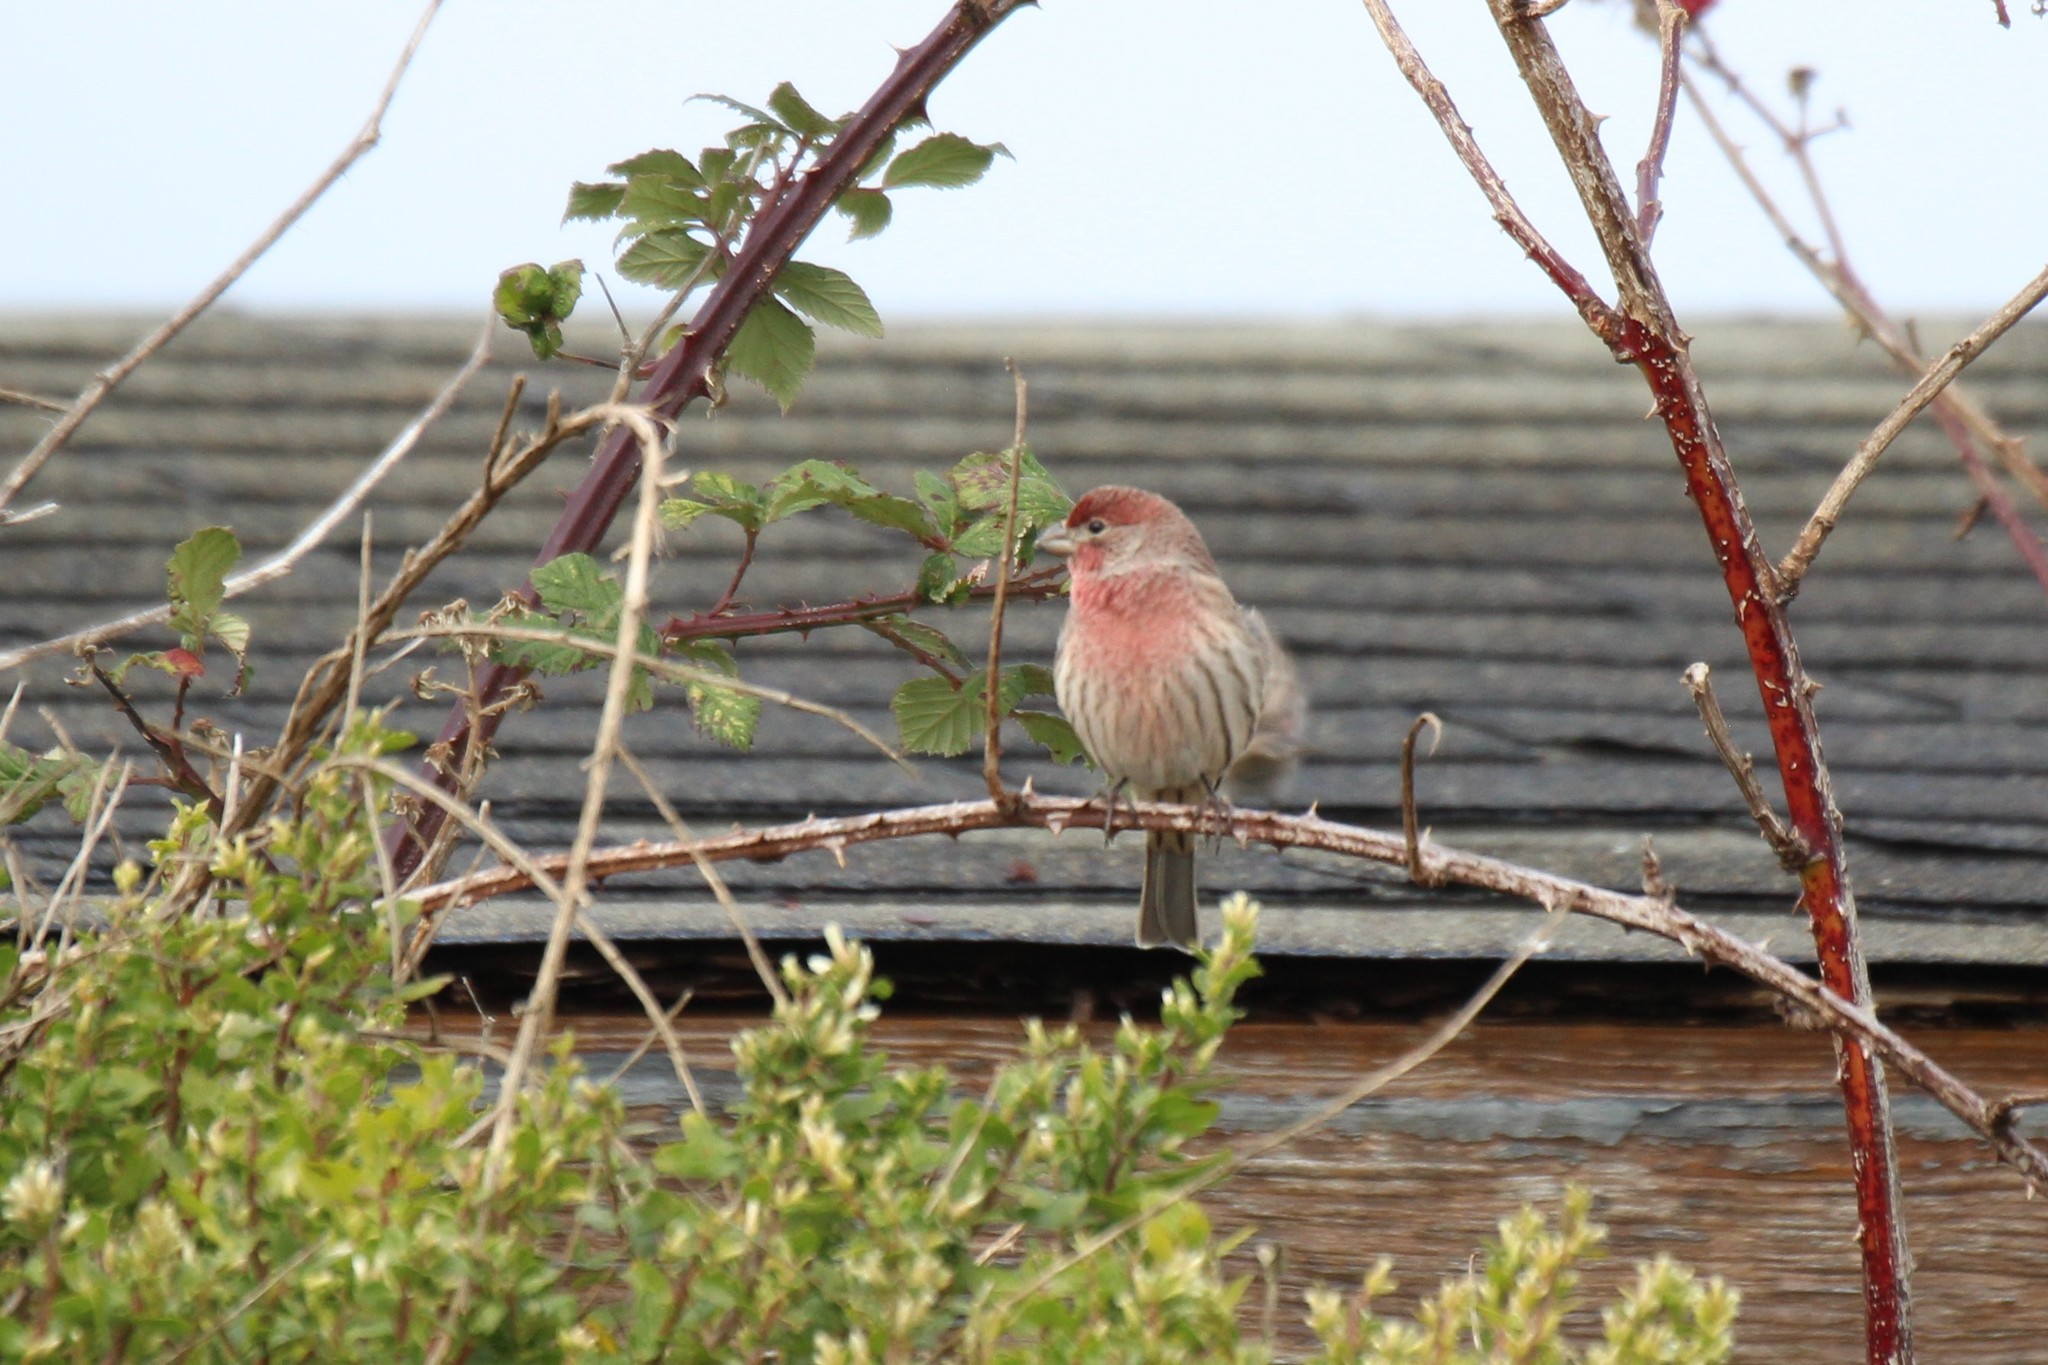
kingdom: Animalia
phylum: Chordata
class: Aves
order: Passeriformes
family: Fringillidae
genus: Haemorhous
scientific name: Haemorhous mexicanus
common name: House finch
